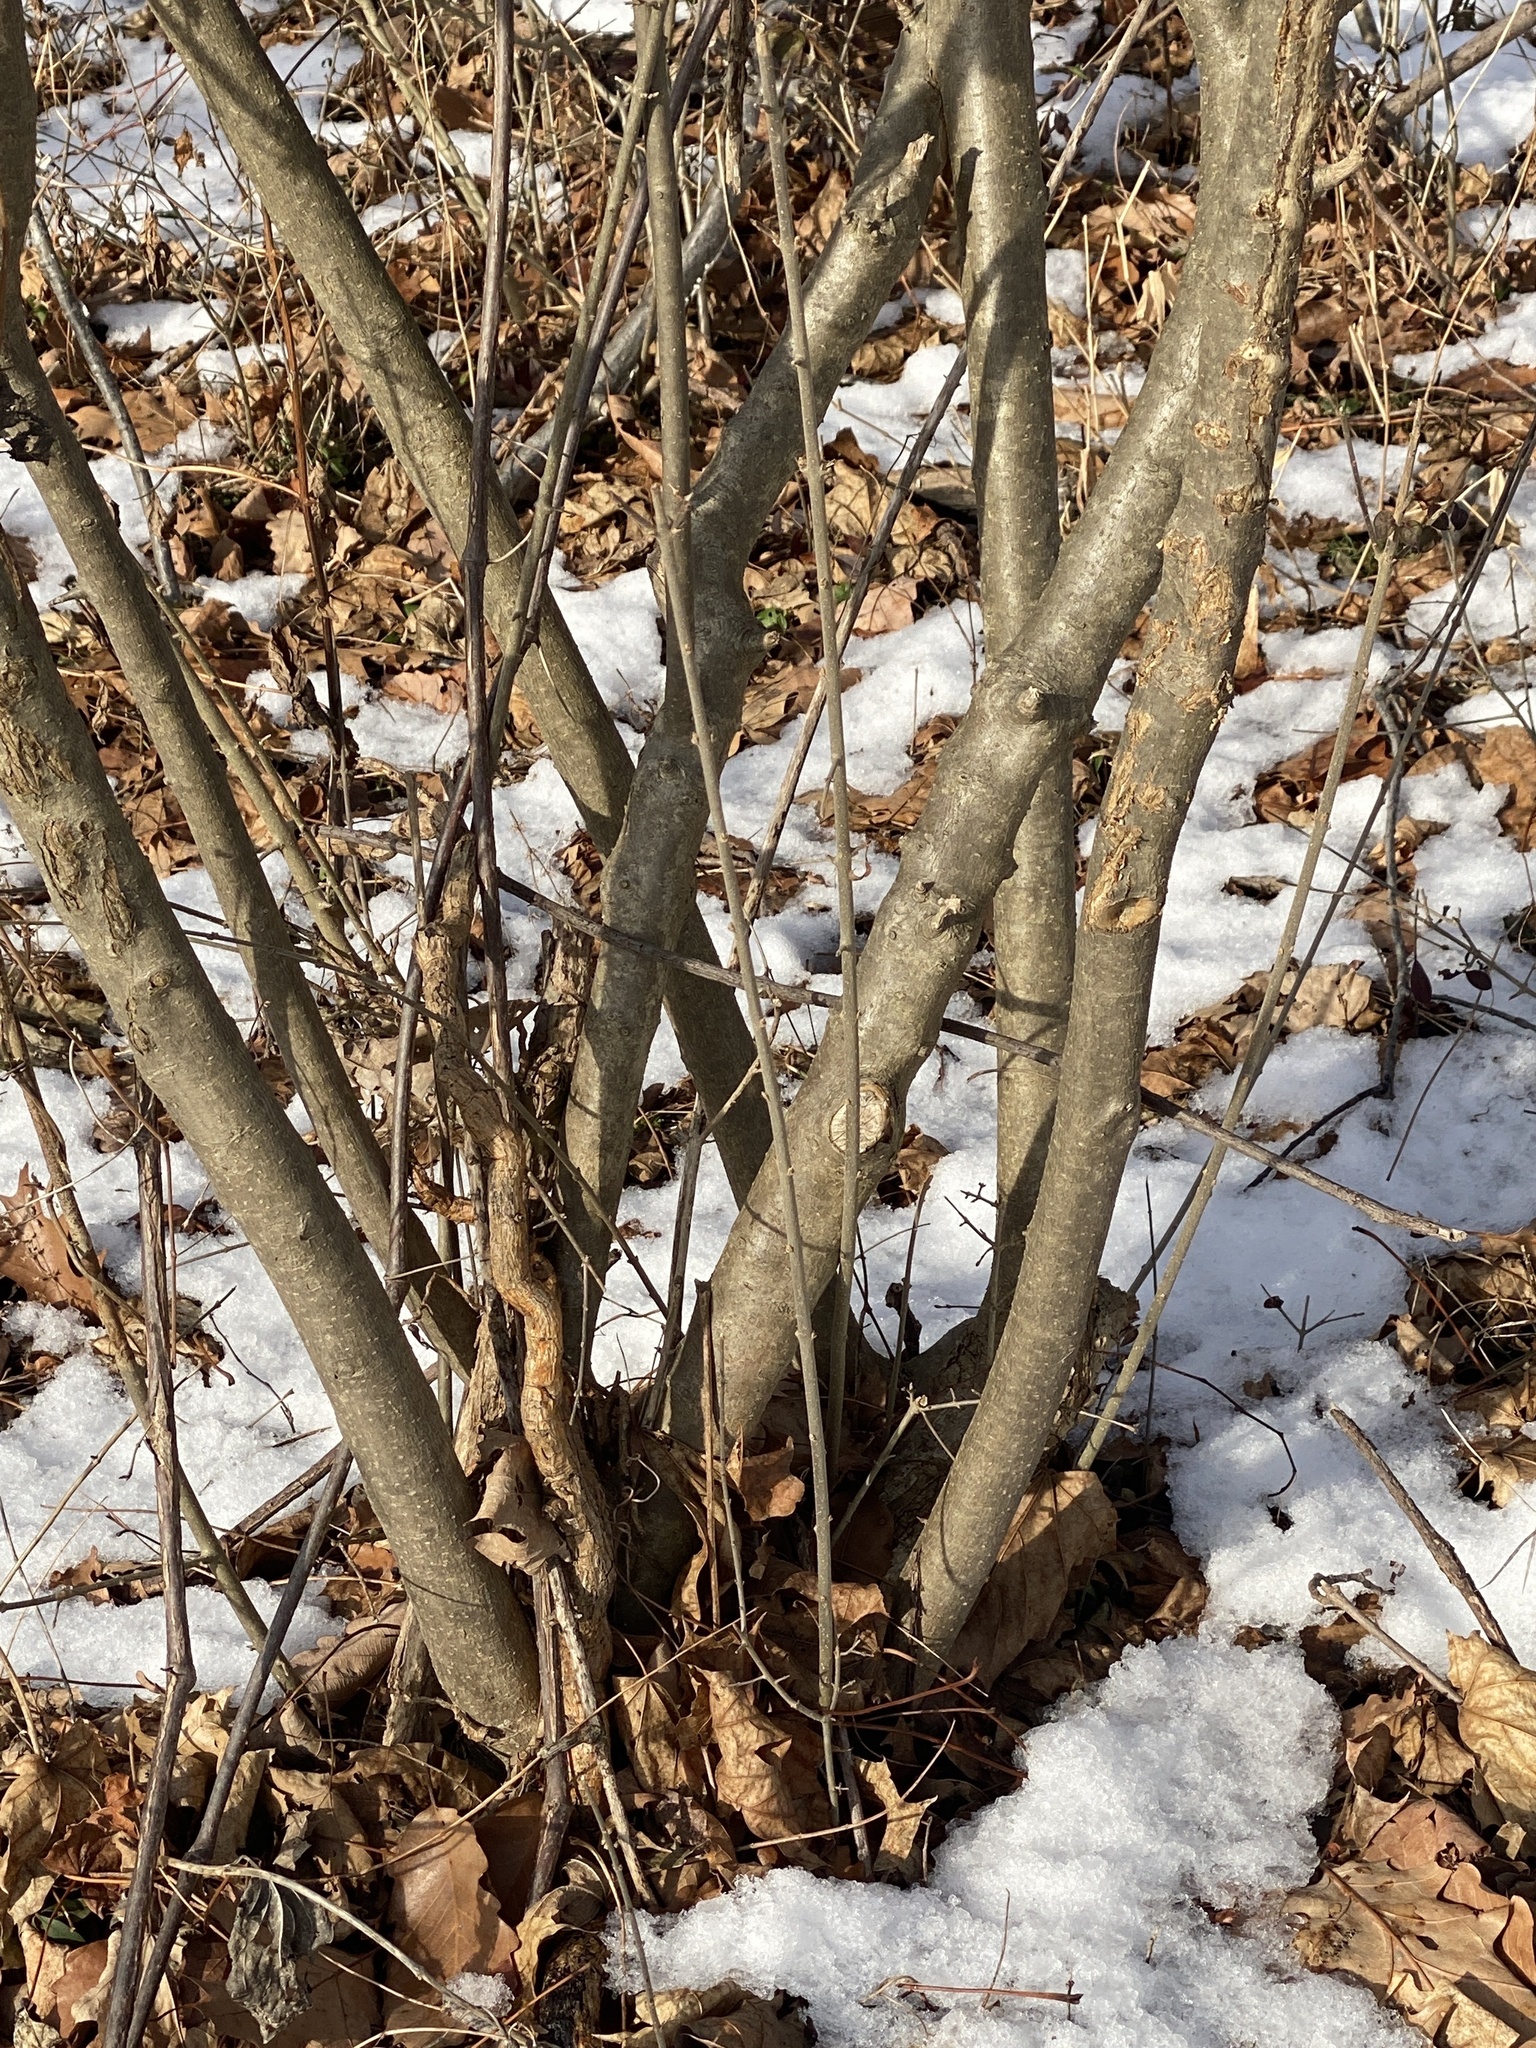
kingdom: Plantae
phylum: Tracheophyta
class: Magnoliopsida
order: Lamiales
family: Oleaceae
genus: Ligustrum
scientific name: Ligustrum obtusifolium
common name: Border privet
